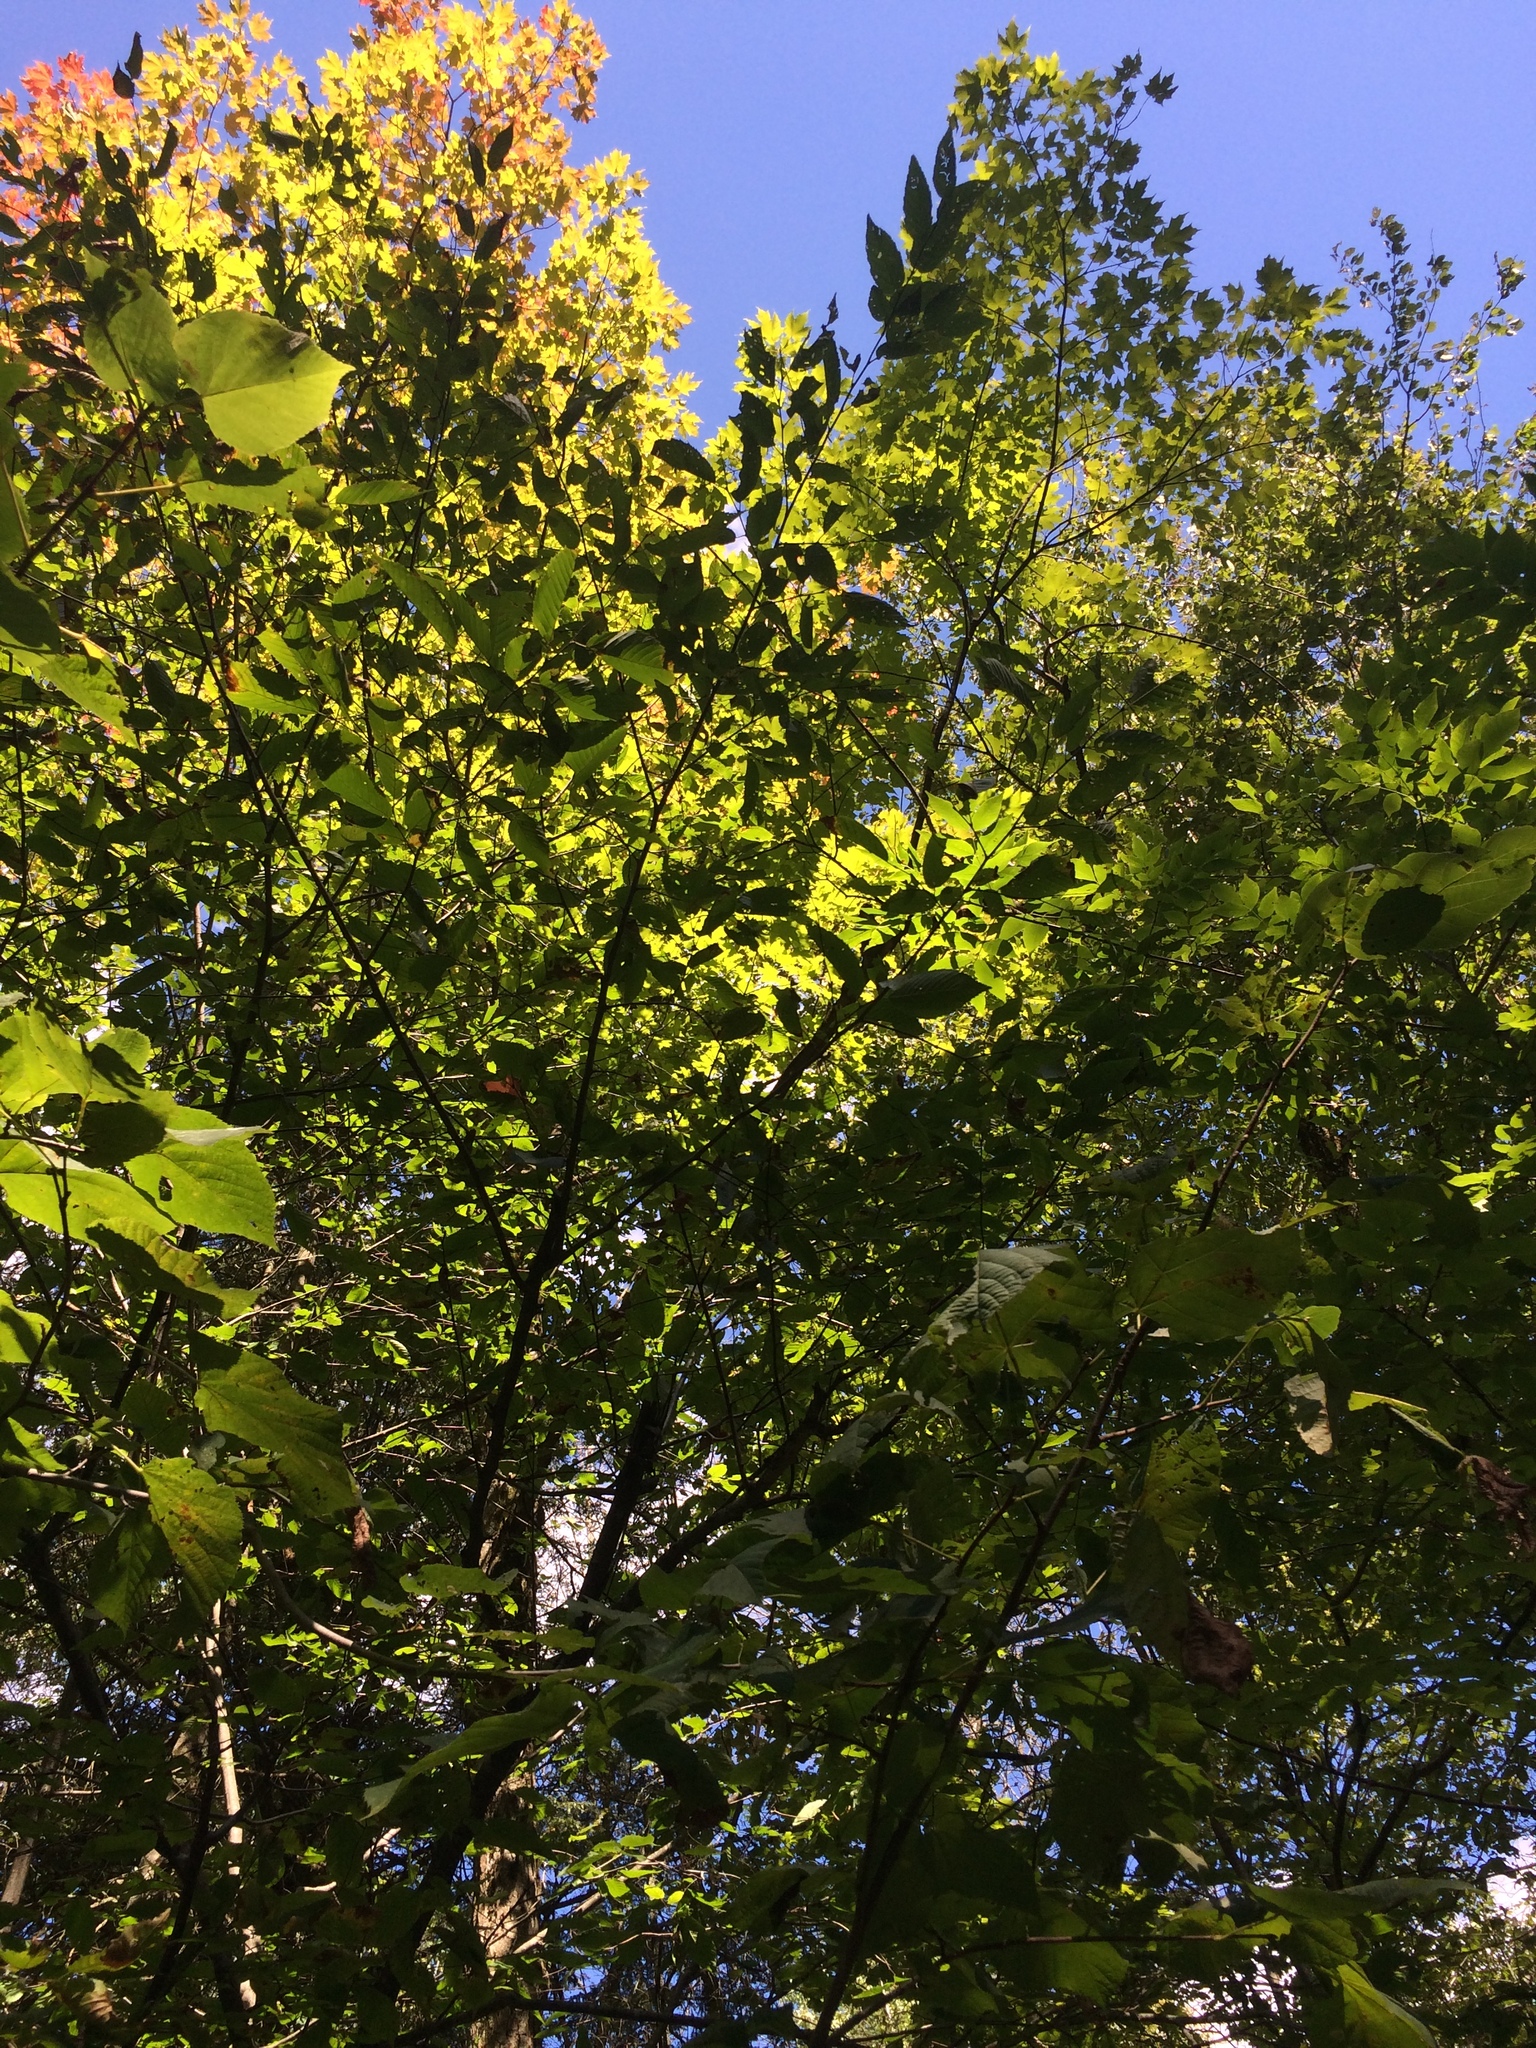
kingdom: Plantae
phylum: Tracheophyta
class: Magnoliopsida
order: Malvales
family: Malvaceae
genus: Tilia
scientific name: Tilia americana
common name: Basswood
